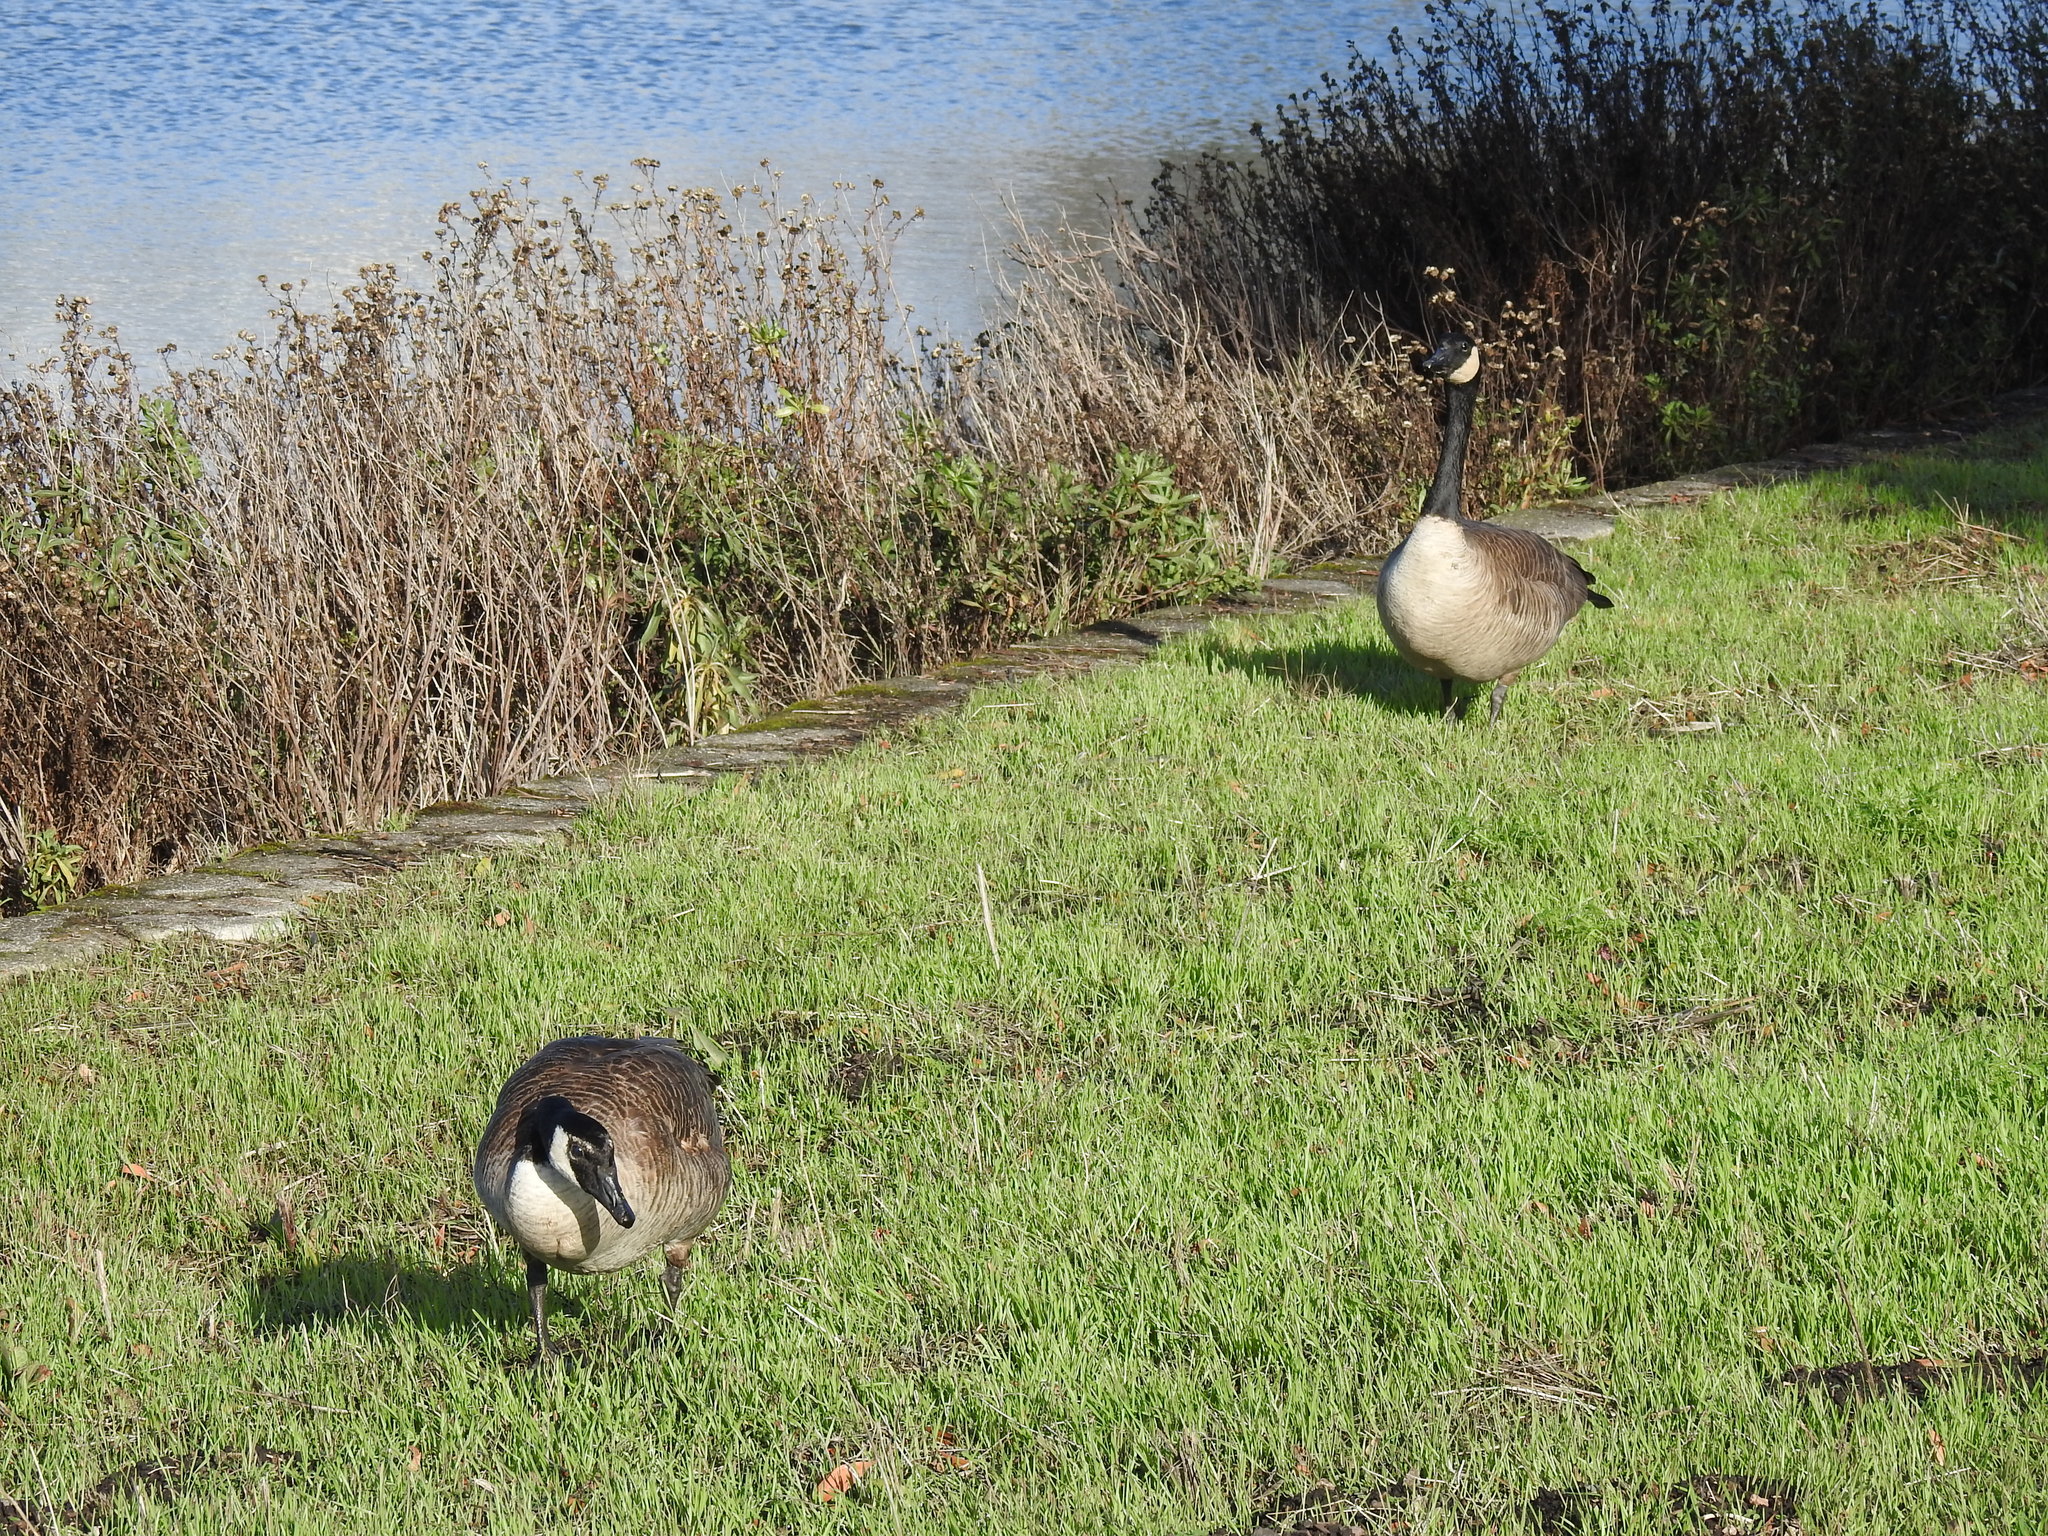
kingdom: Animalia
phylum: Chordata
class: Aves
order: Anseriformes
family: Anatidae
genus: Branta
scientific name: Branta canadensis
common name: Canada goose
